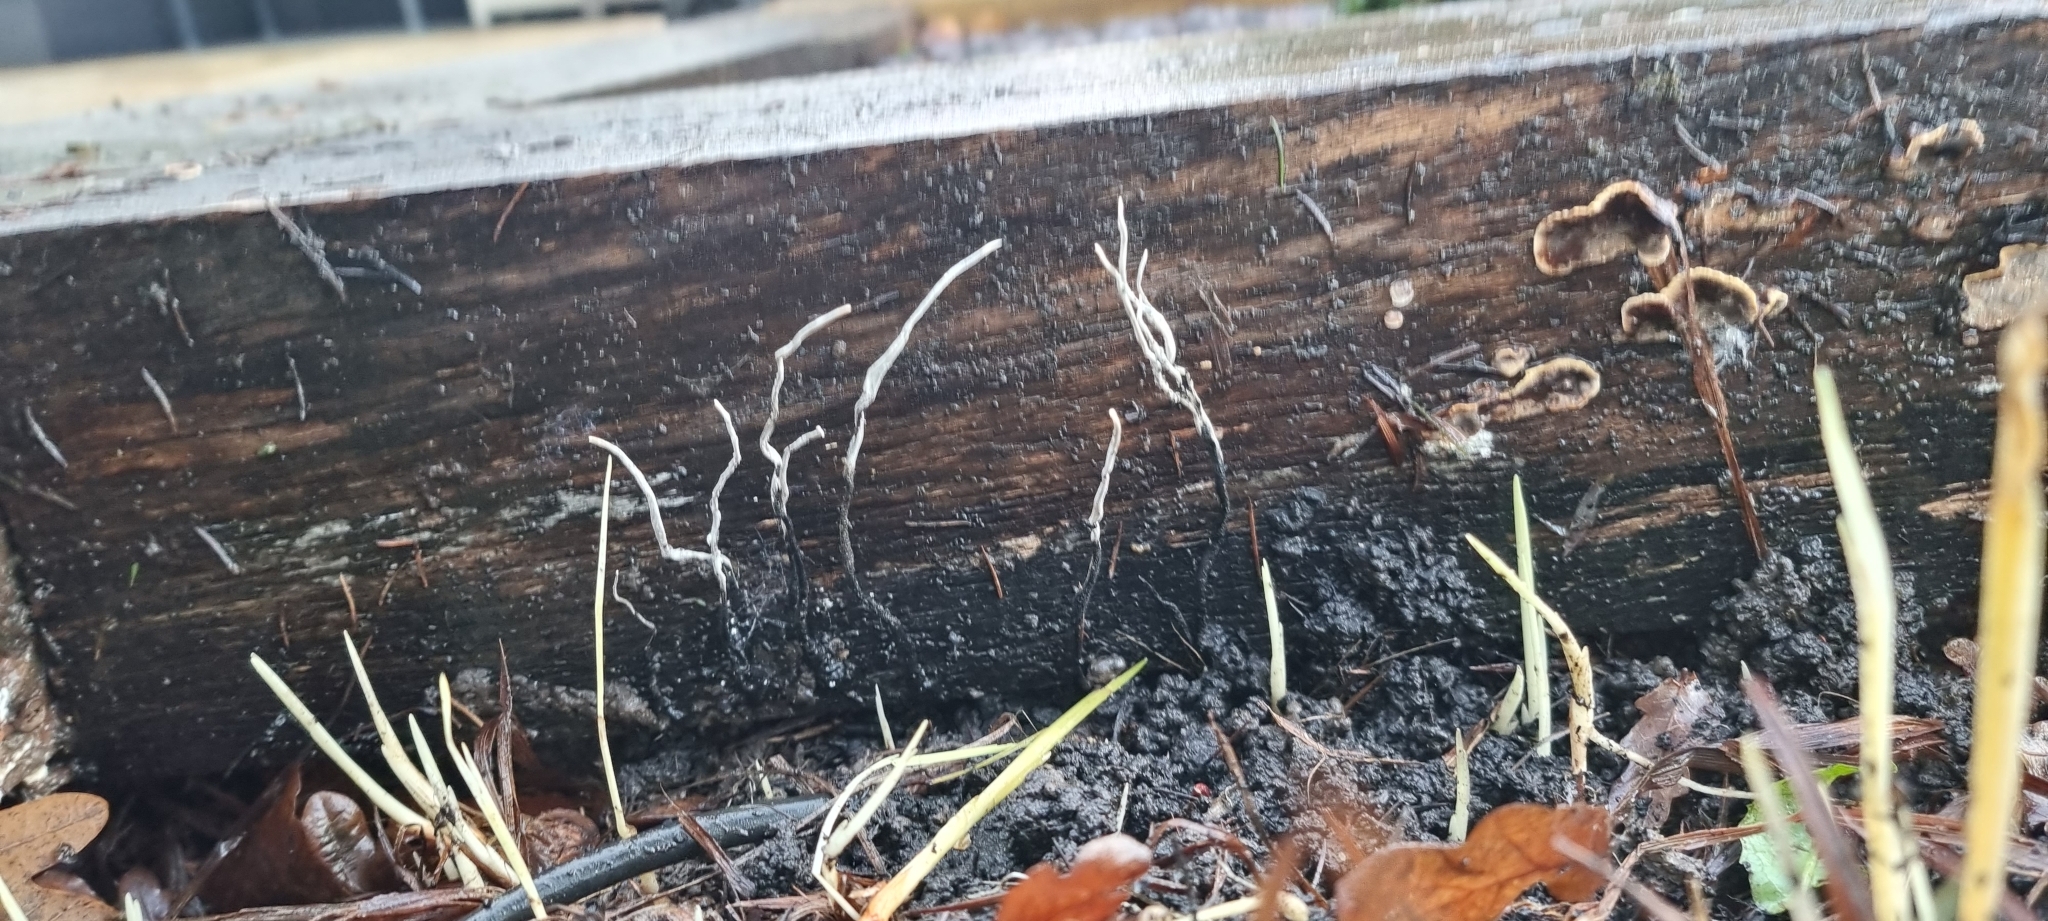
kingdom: Fungi
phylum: Ascomycota
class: Sordariomycetes
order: Xylariales
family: Xylariaceae
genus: Xylaria
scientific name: Xylaria hypoxylon
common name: Candle-snuff fungus
